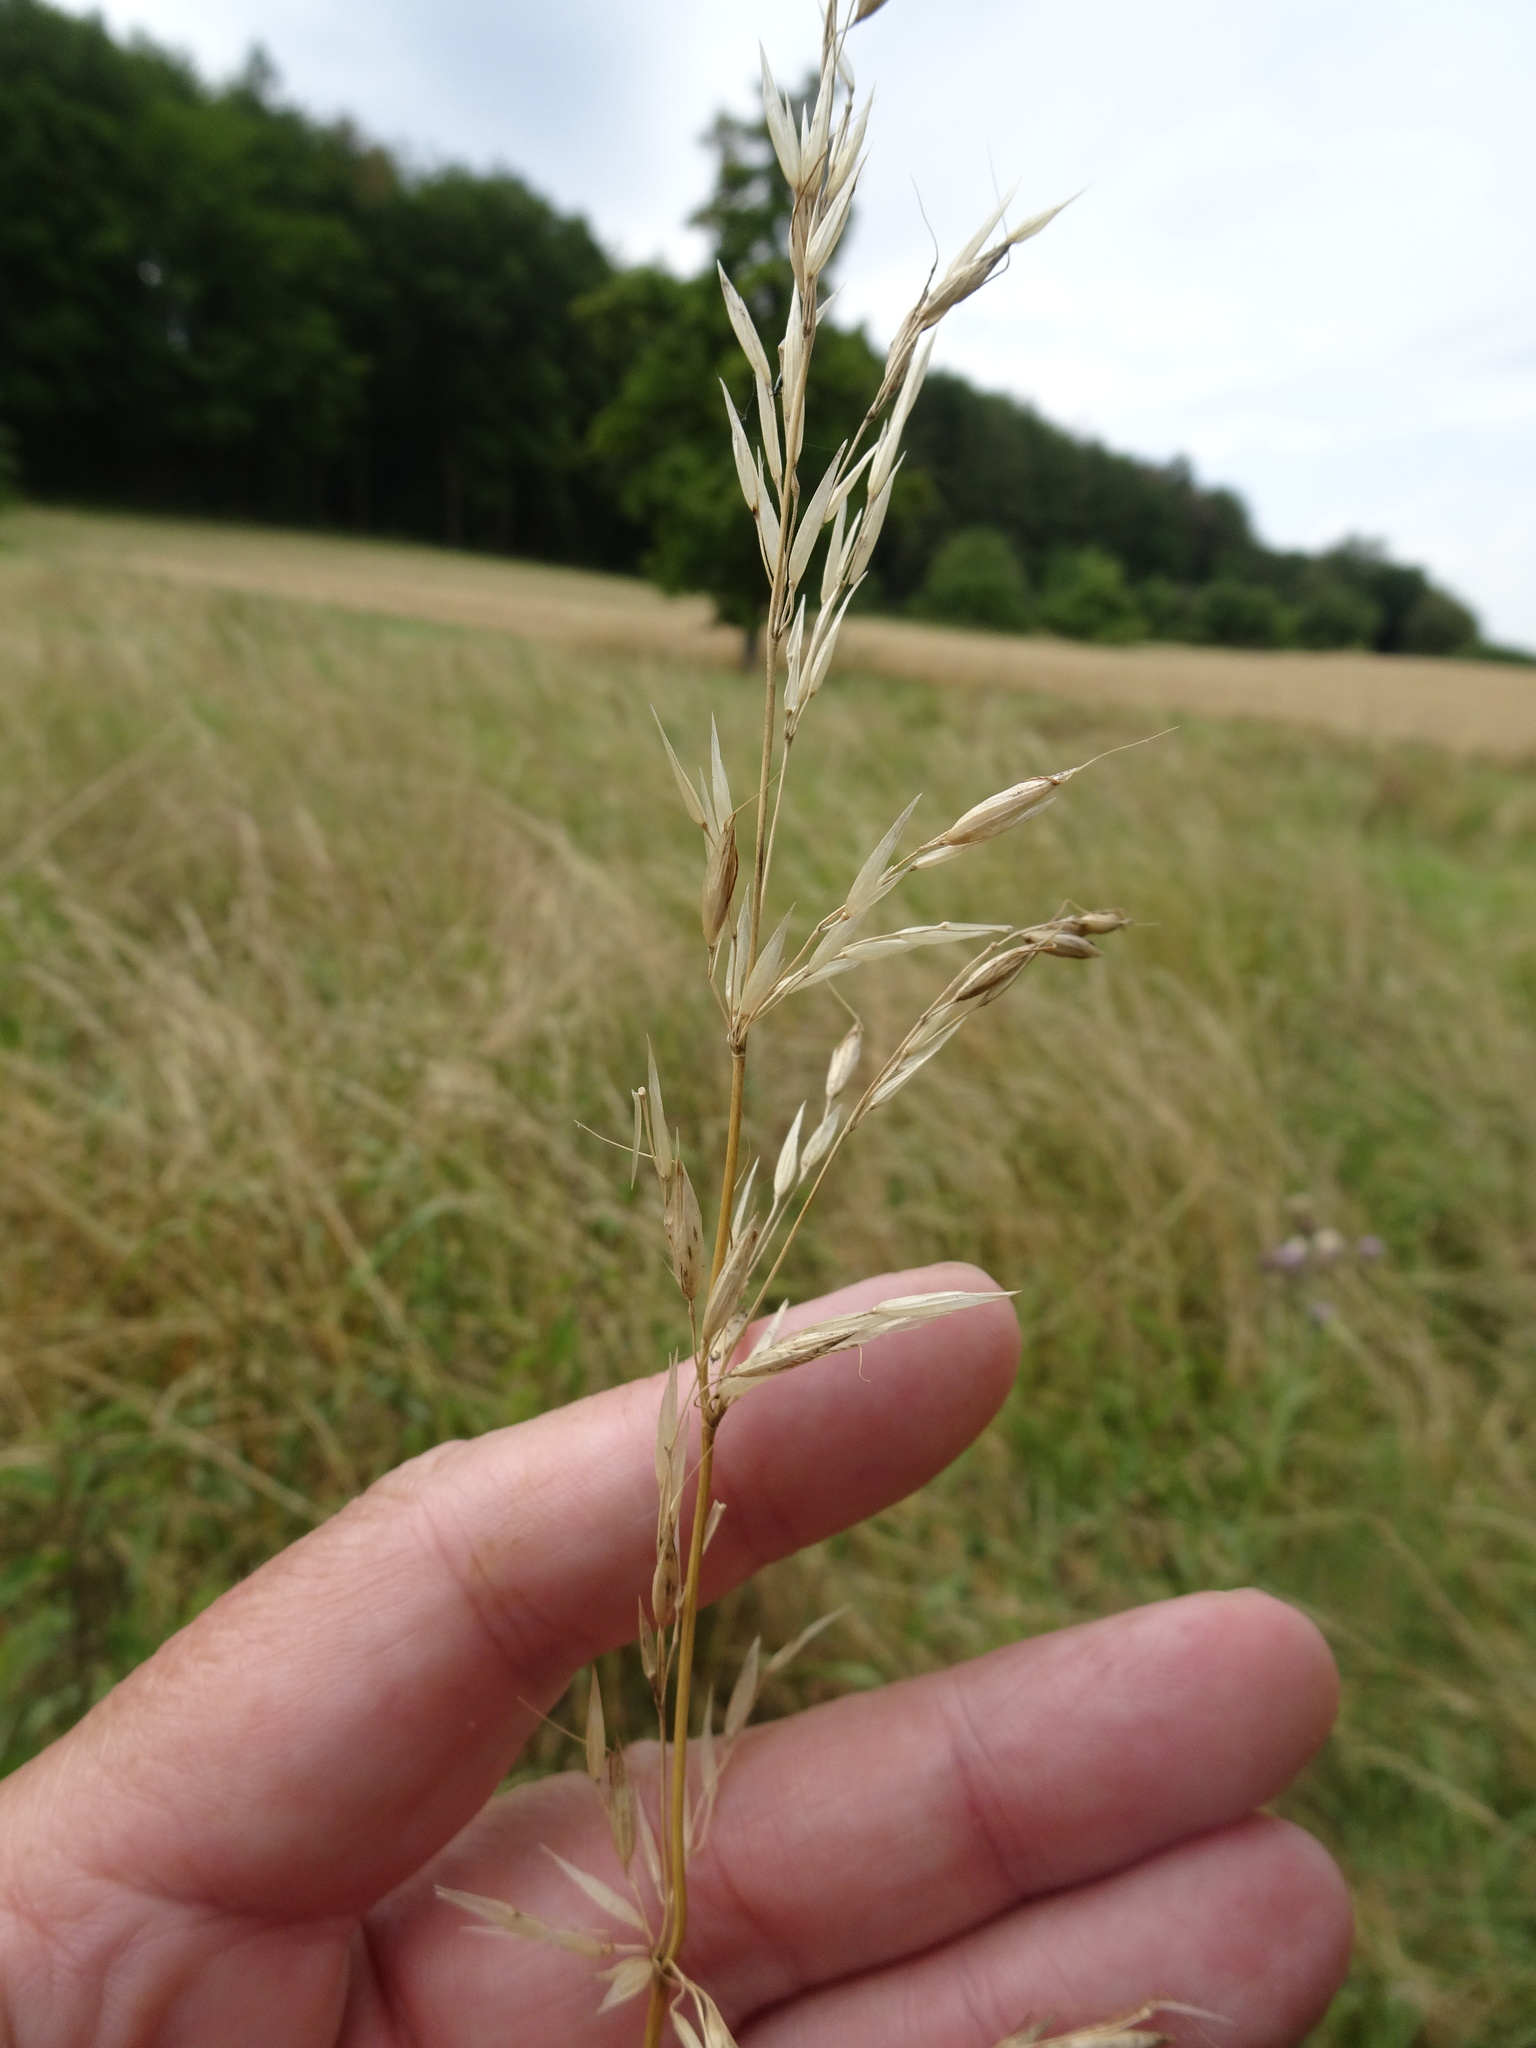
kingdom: Plantae
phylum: Tracheophyta
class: Liliopsida
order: Poales
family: Poaceae
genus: Arrhenatherum
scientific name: Arrhenatherum elatius
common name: Tall oatgrass
